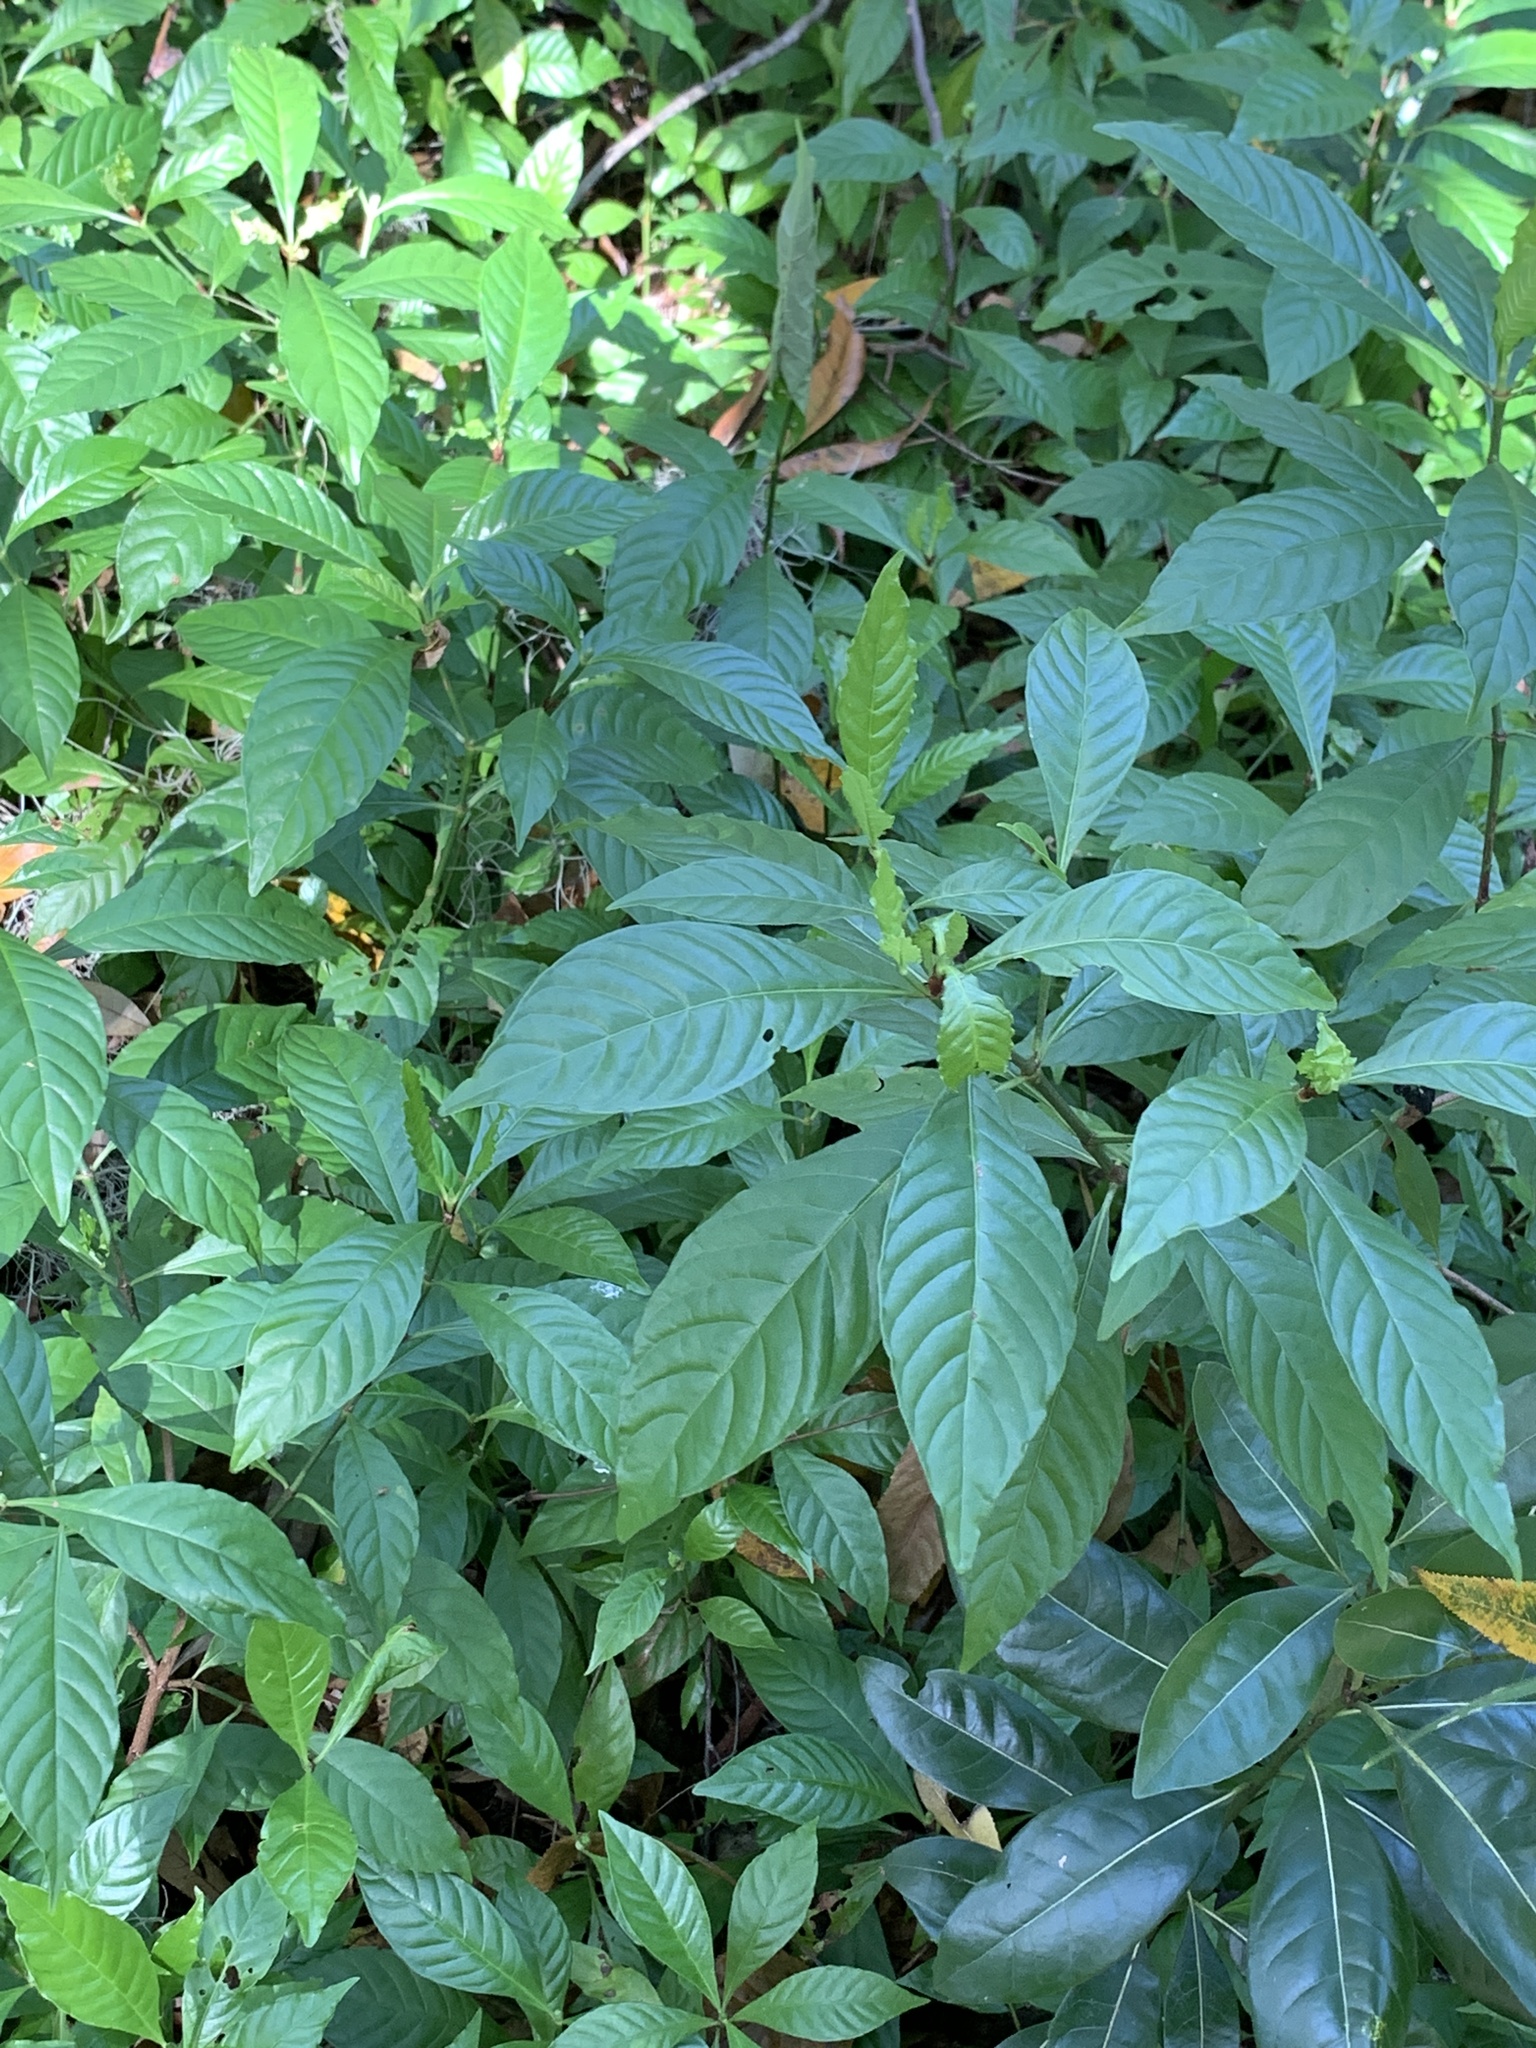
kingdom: Plantae
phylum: Tracheophyta
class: Magnoliopsida
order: Gentianales
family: Rubiaceae
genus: Psychotria
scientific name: Psychotria nervosa
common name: Bastard cankerberry
